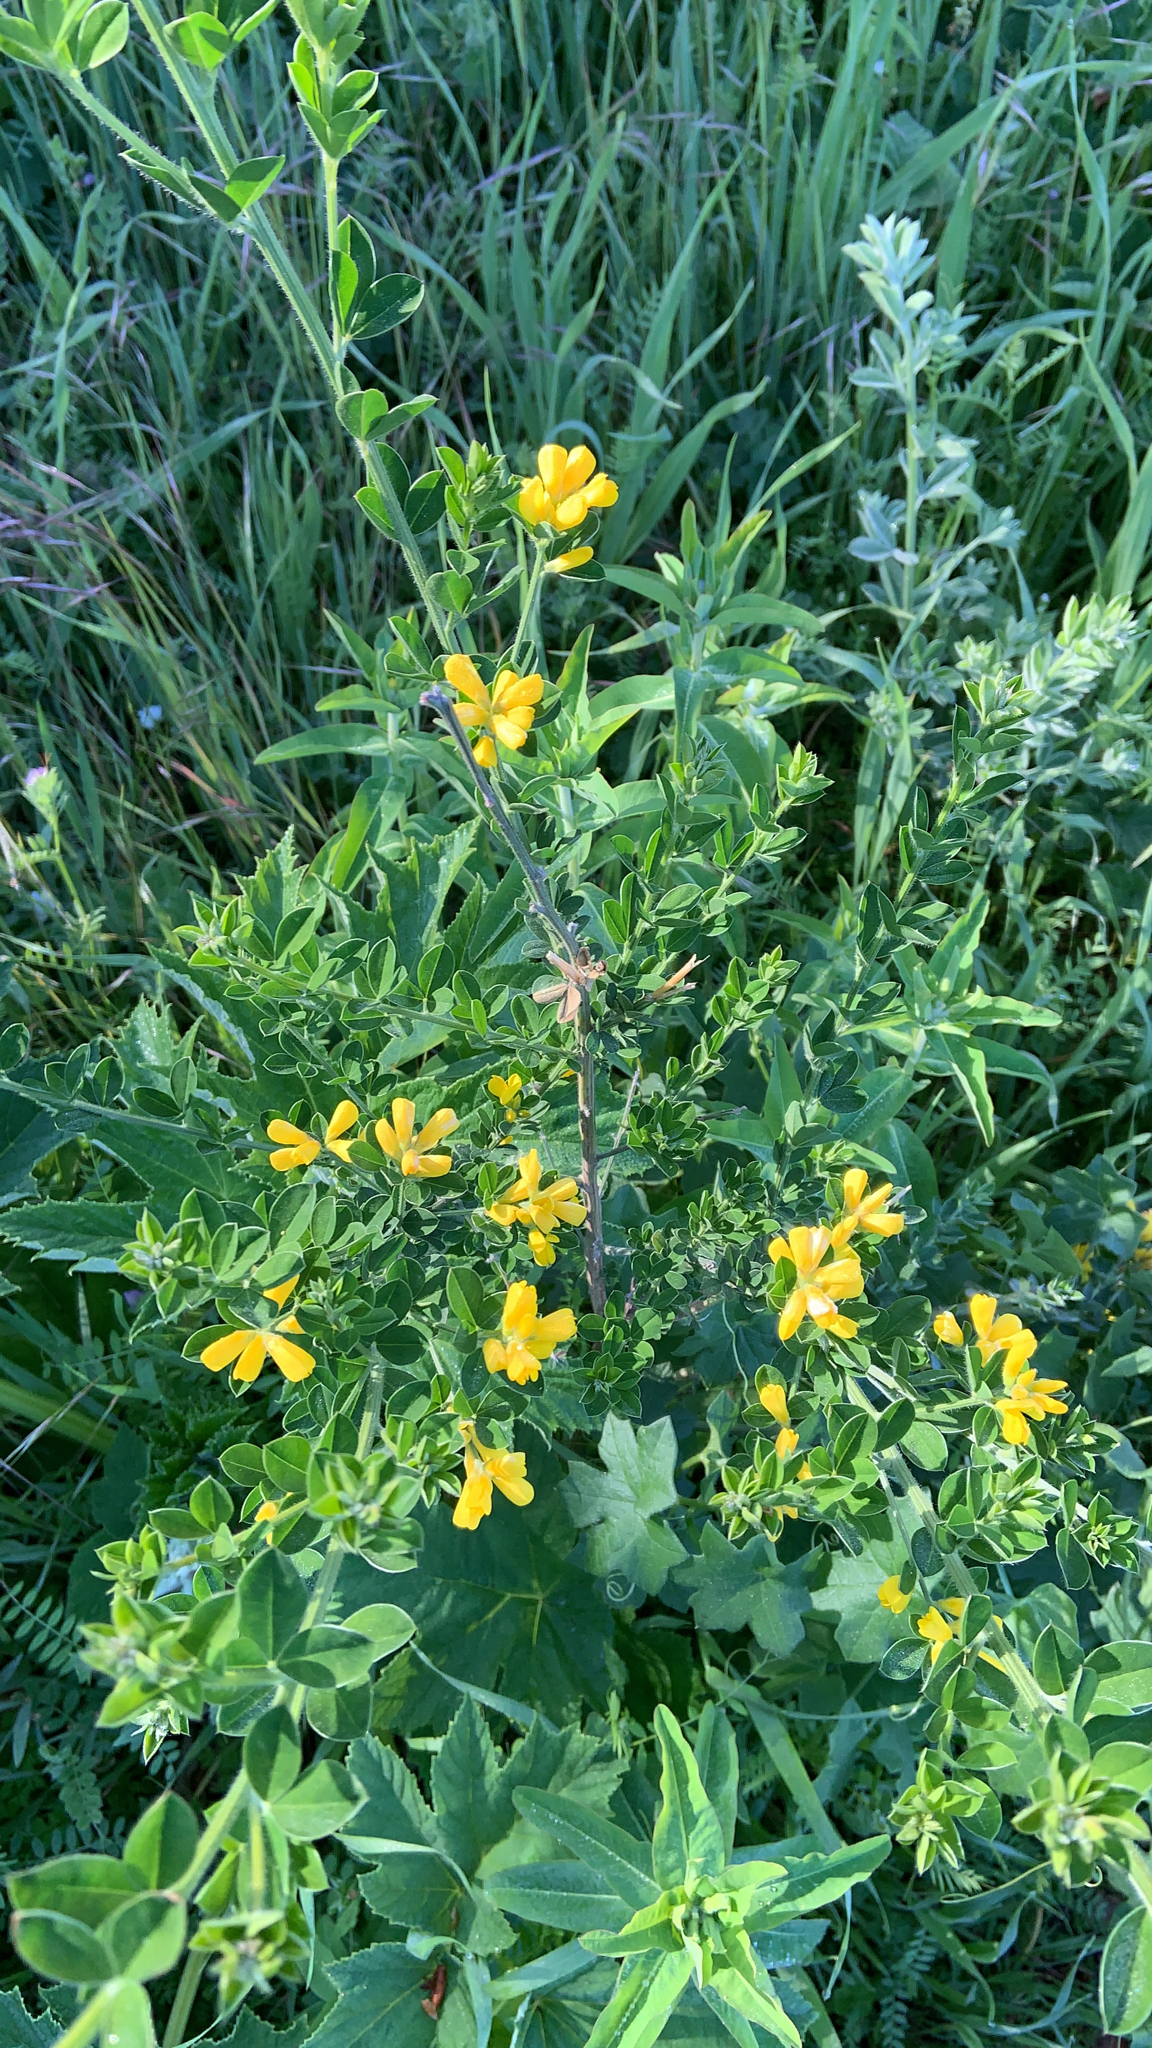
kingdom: Plantae
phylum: Tracheophyta
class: Magnoliopsida
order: Fabales
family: Fabaceae
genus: Genista
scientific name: Genista monspessulana
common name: Montpellier broom
